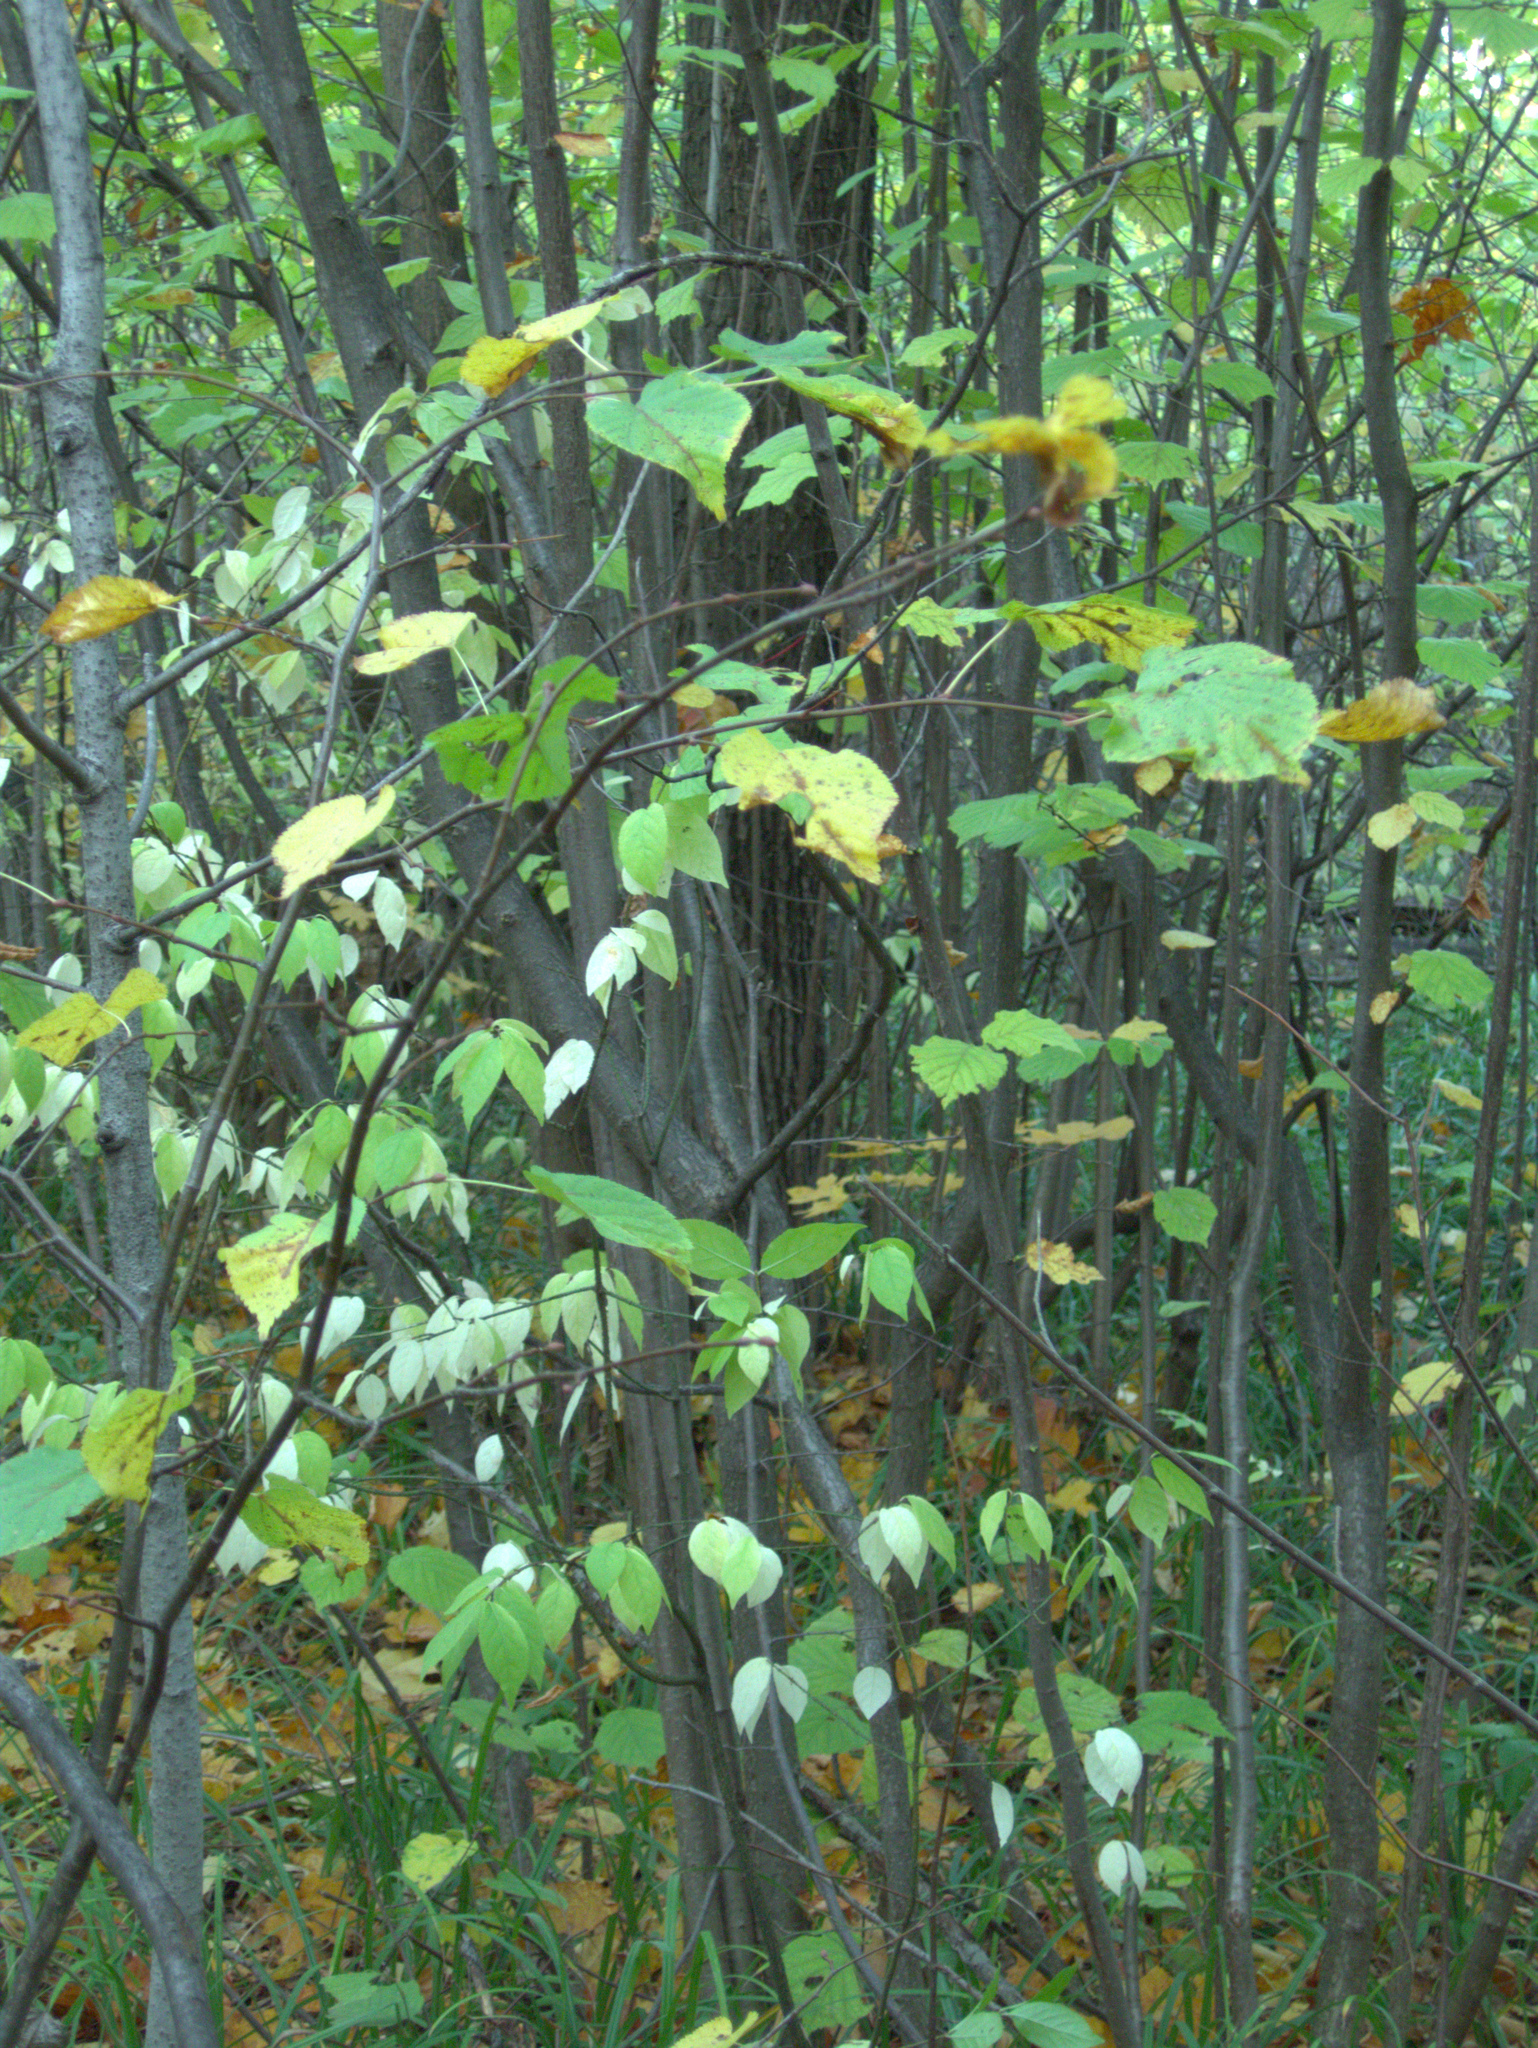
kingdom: Plantae
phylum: Tracheophyta
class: Magnoliopsida
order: Celastrales
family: Celastraceae
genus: Euonymus
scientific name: Euonymus verrucosus
